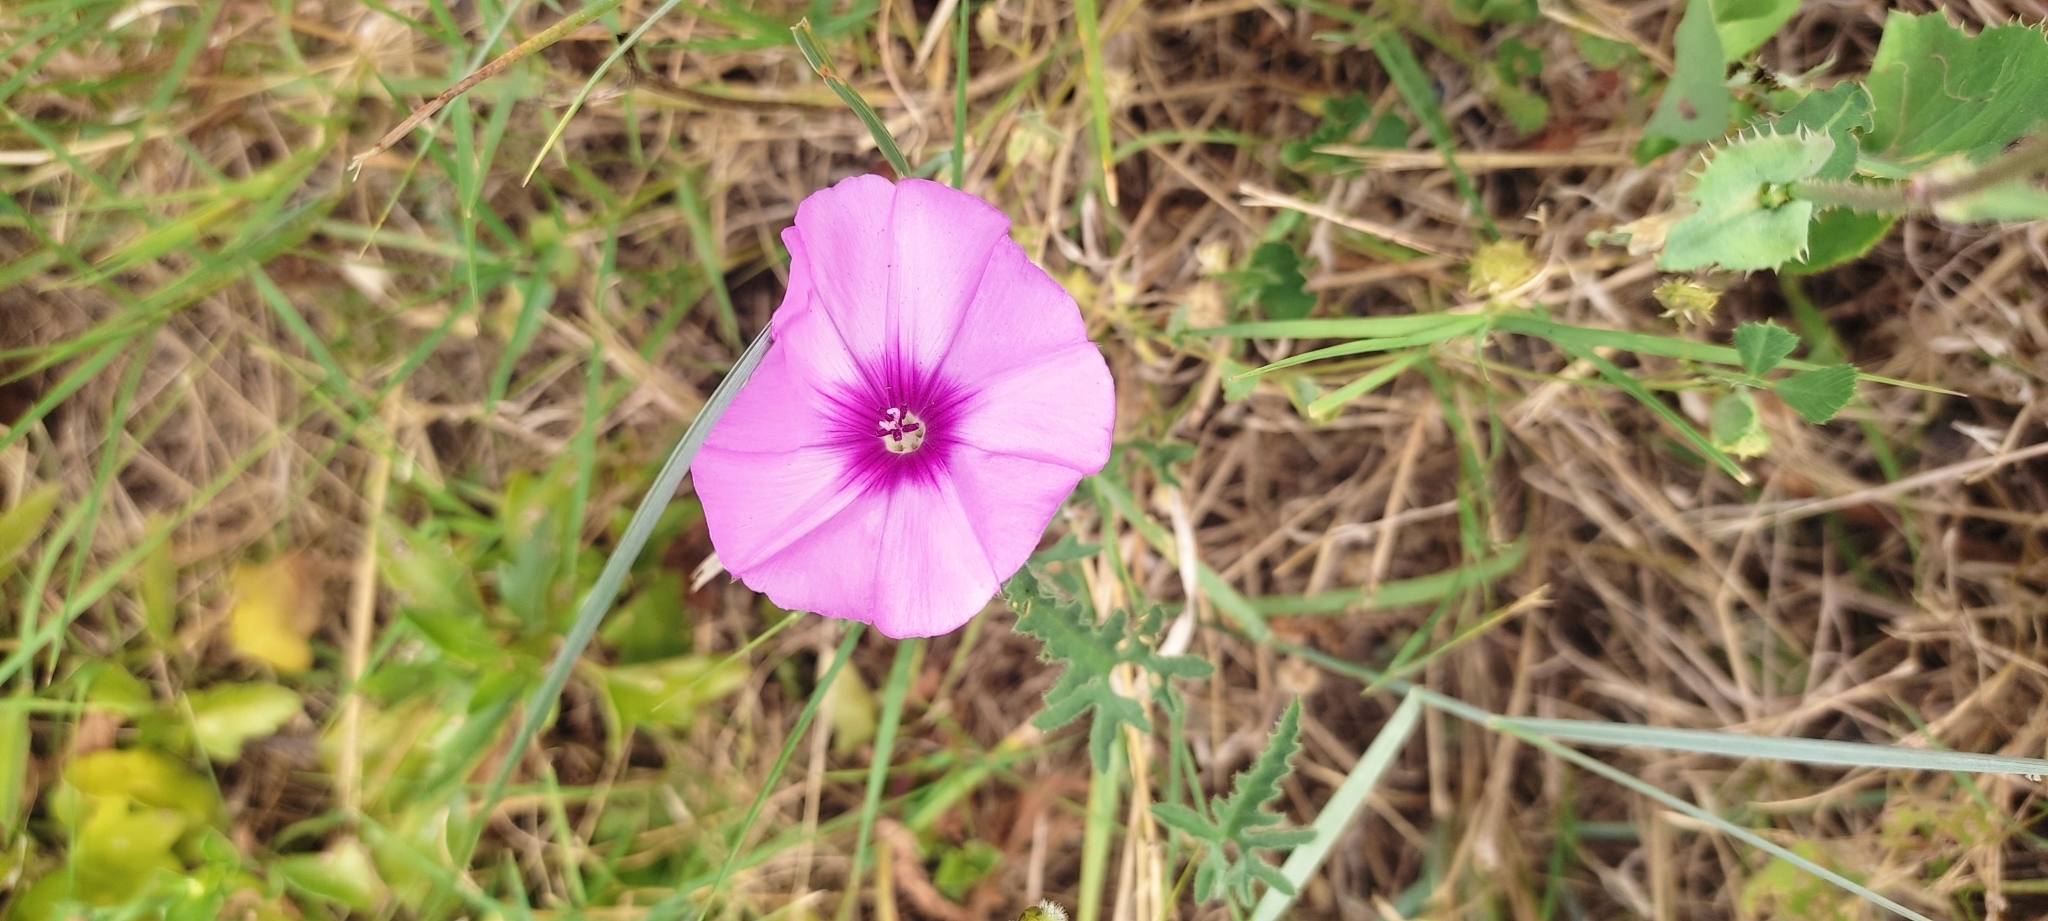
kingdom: Plantae
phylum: Tracheophyta
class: Magnoliopsida
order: Solanales
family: Convolvulaceae
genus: Convolvulus
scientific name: Convolvulus althaeoides
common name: Mallow bindweed
